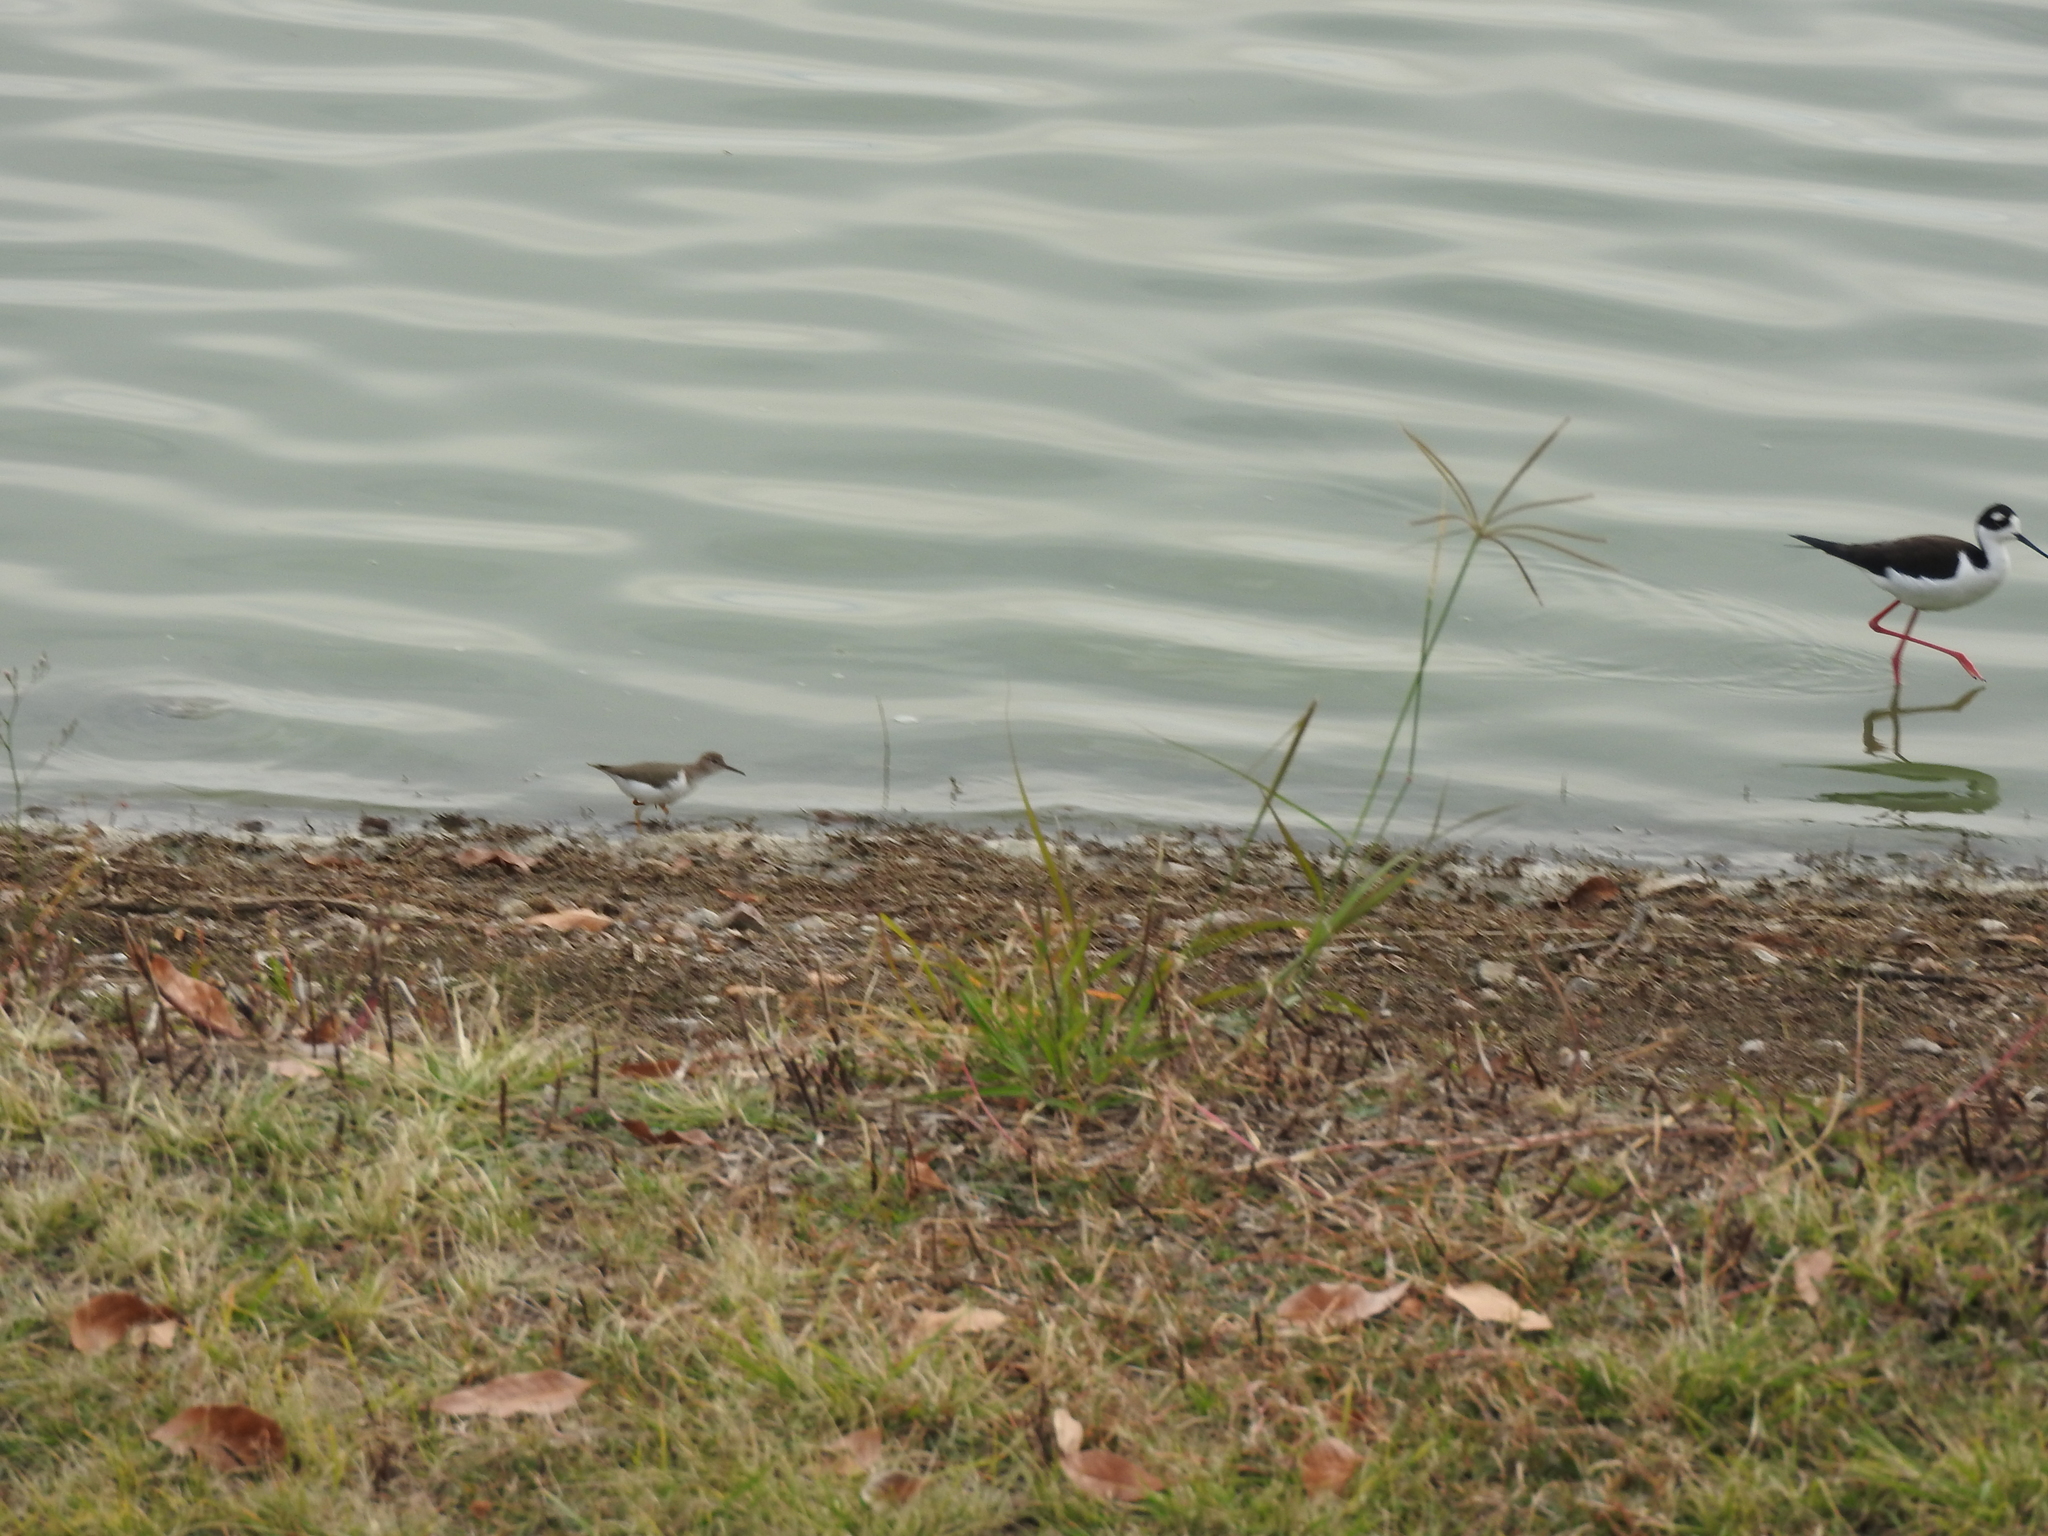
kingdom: Animalia
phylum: Chordata
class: Aves
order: Charadriiformes
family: Scolopacidae
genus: Actitis
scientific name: Actitis macularius
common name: Spotted sandpiper
